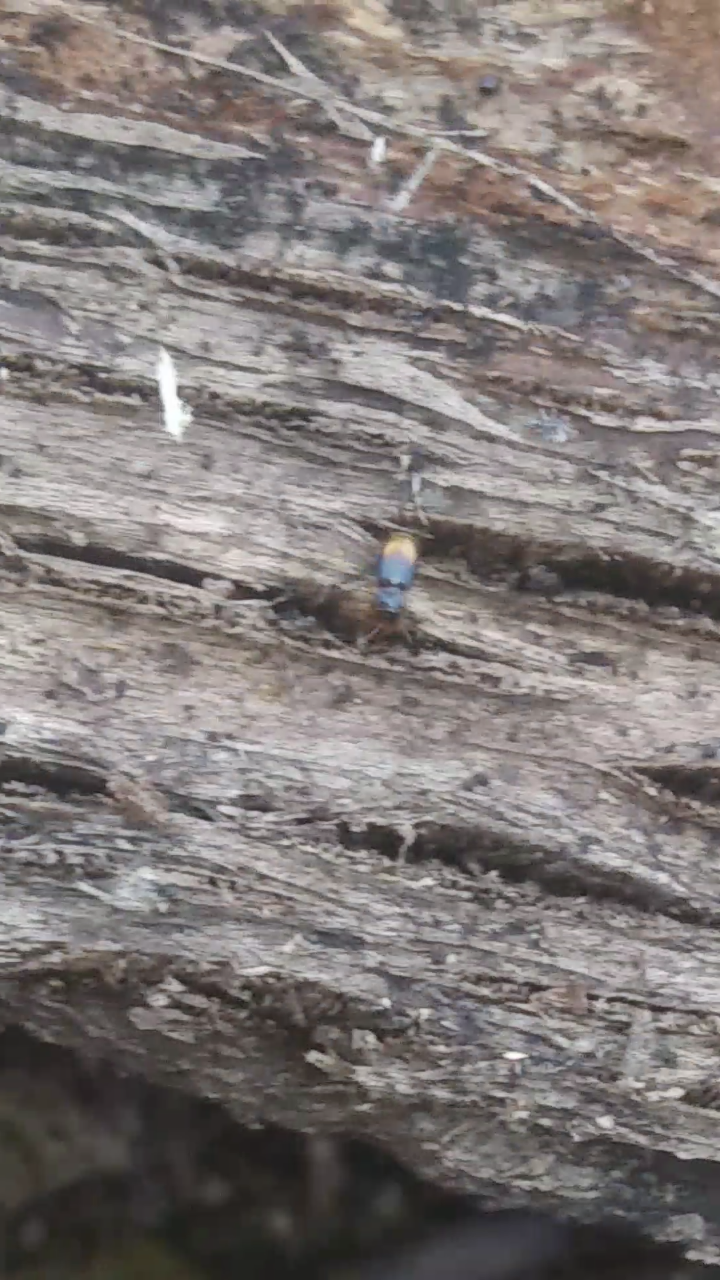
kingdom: Animalia
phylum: Arthropoda
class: Insecta
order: Coleoptera
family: Carabidae
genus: Mioptachys
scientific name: Mioptachys flavicauda
